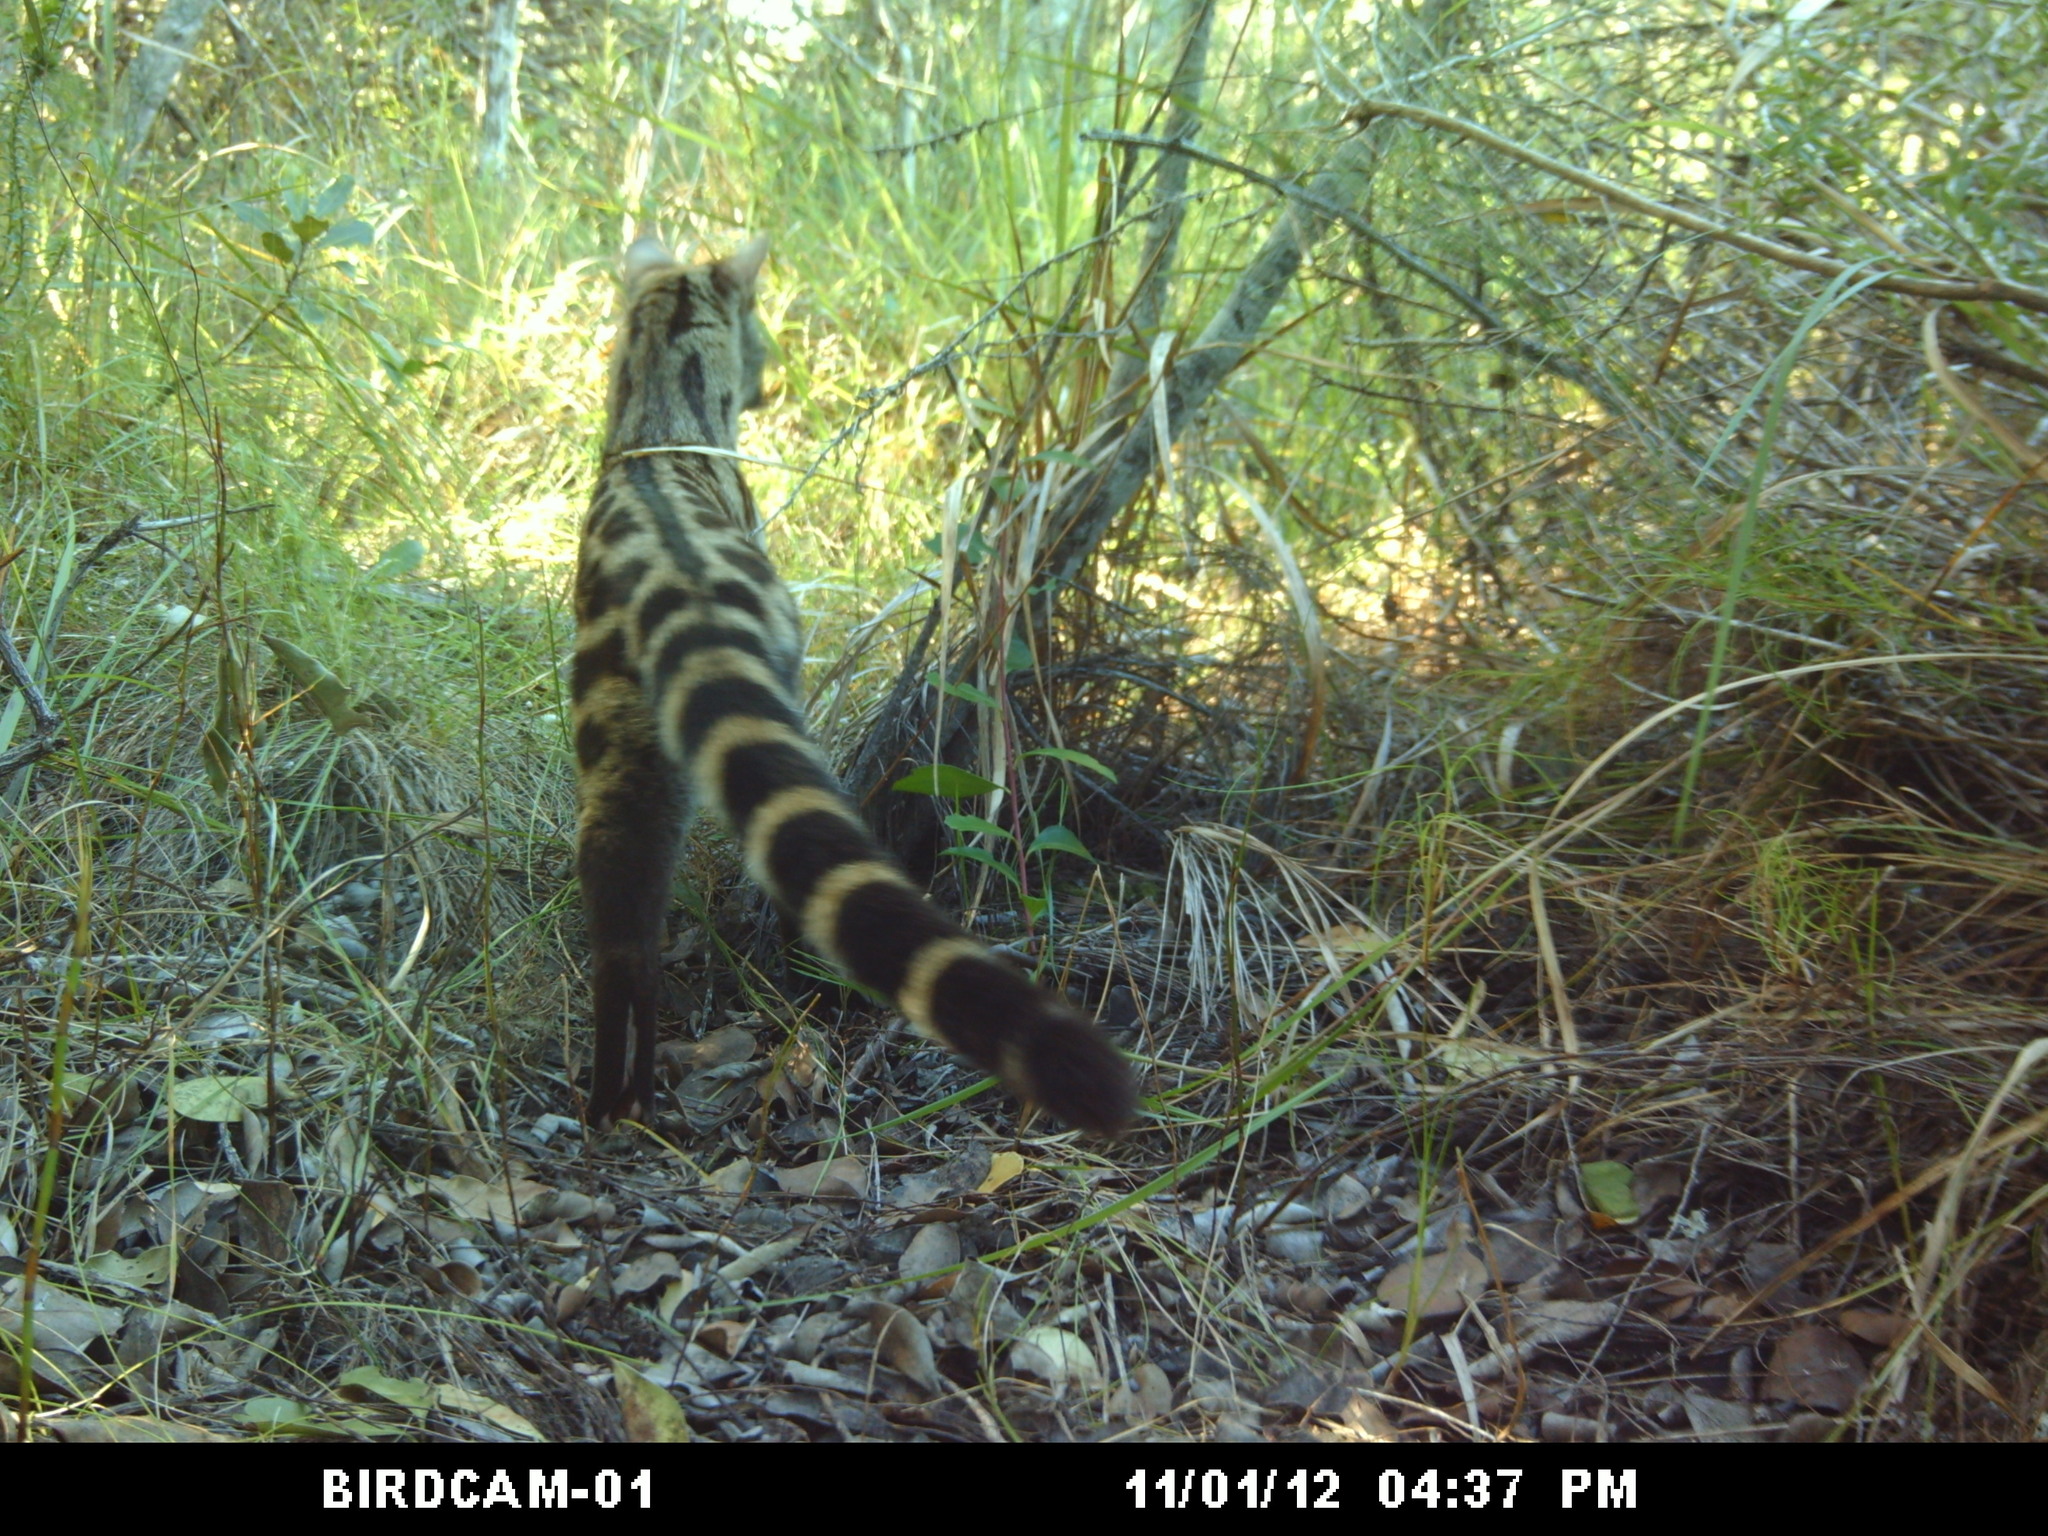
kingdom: Animalia
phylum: Chordata
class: Mammalia
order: Carnivora
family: Viverridae
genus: Genetta
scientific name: Genetta tigrina
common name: Cape genet
